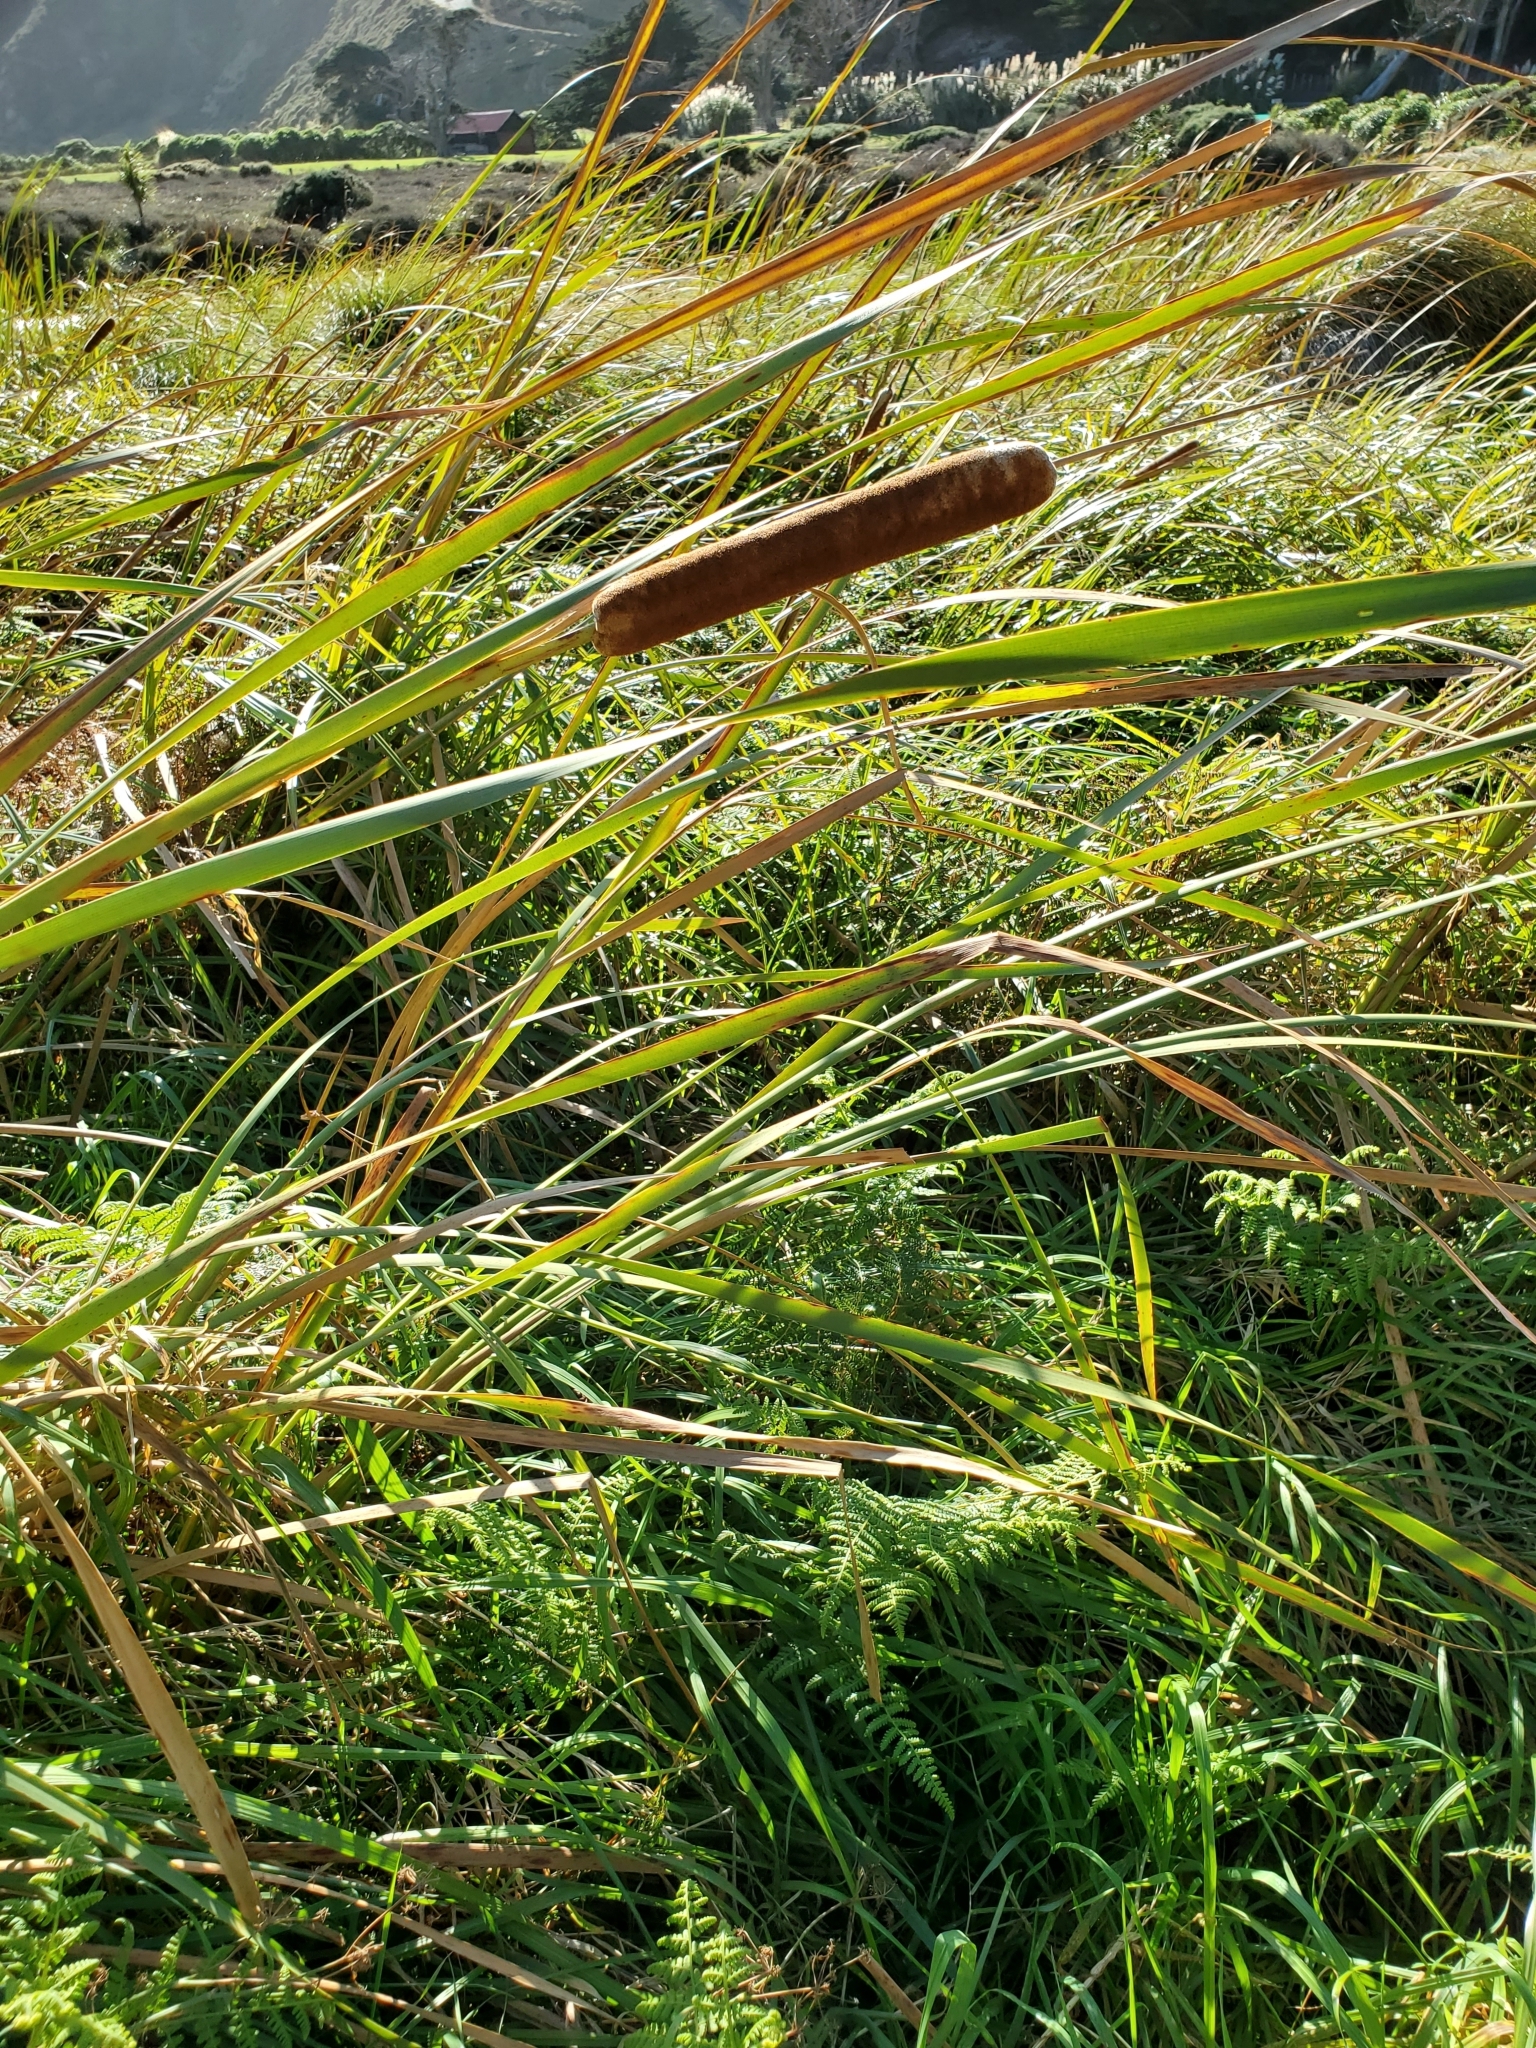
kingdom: Plantae
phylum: Tracheophyta
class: Liliopsida
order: Poales
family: Typhaceae
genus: Typha
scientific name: Typha orientalis
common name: Bullrush
